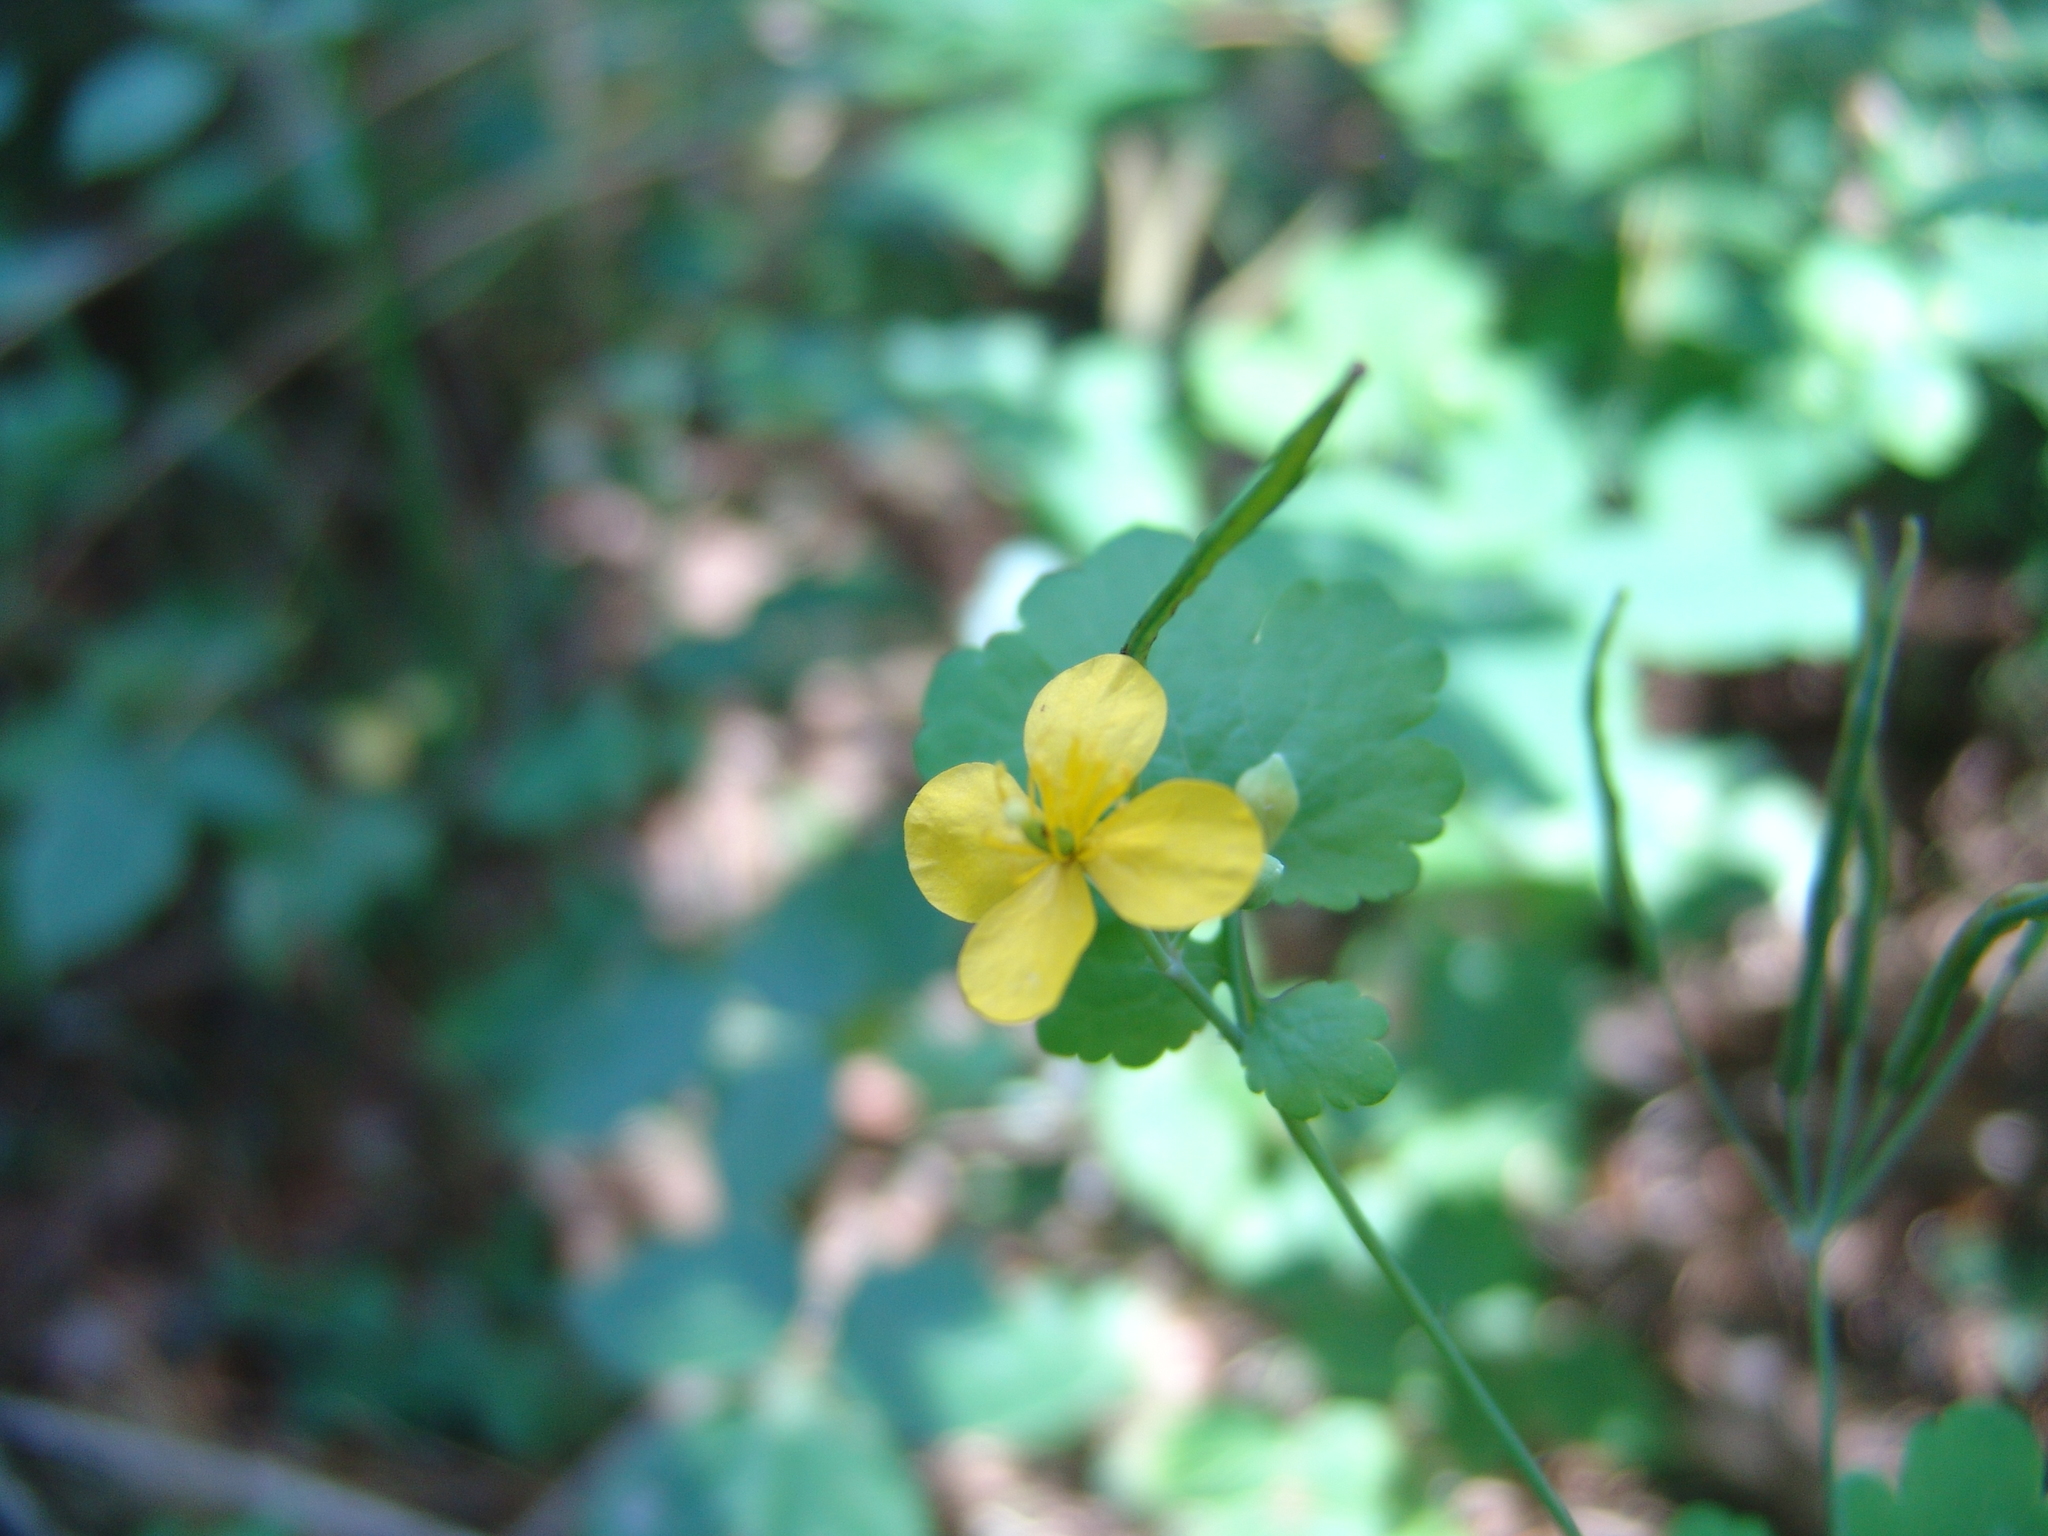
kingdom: Plantae
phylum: Tracheophyta
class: Magnoliopsida
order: Ranunculales
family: Papaveraceae
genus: Chelidonium
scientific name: Chelidonium majus
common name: Greater celandine
